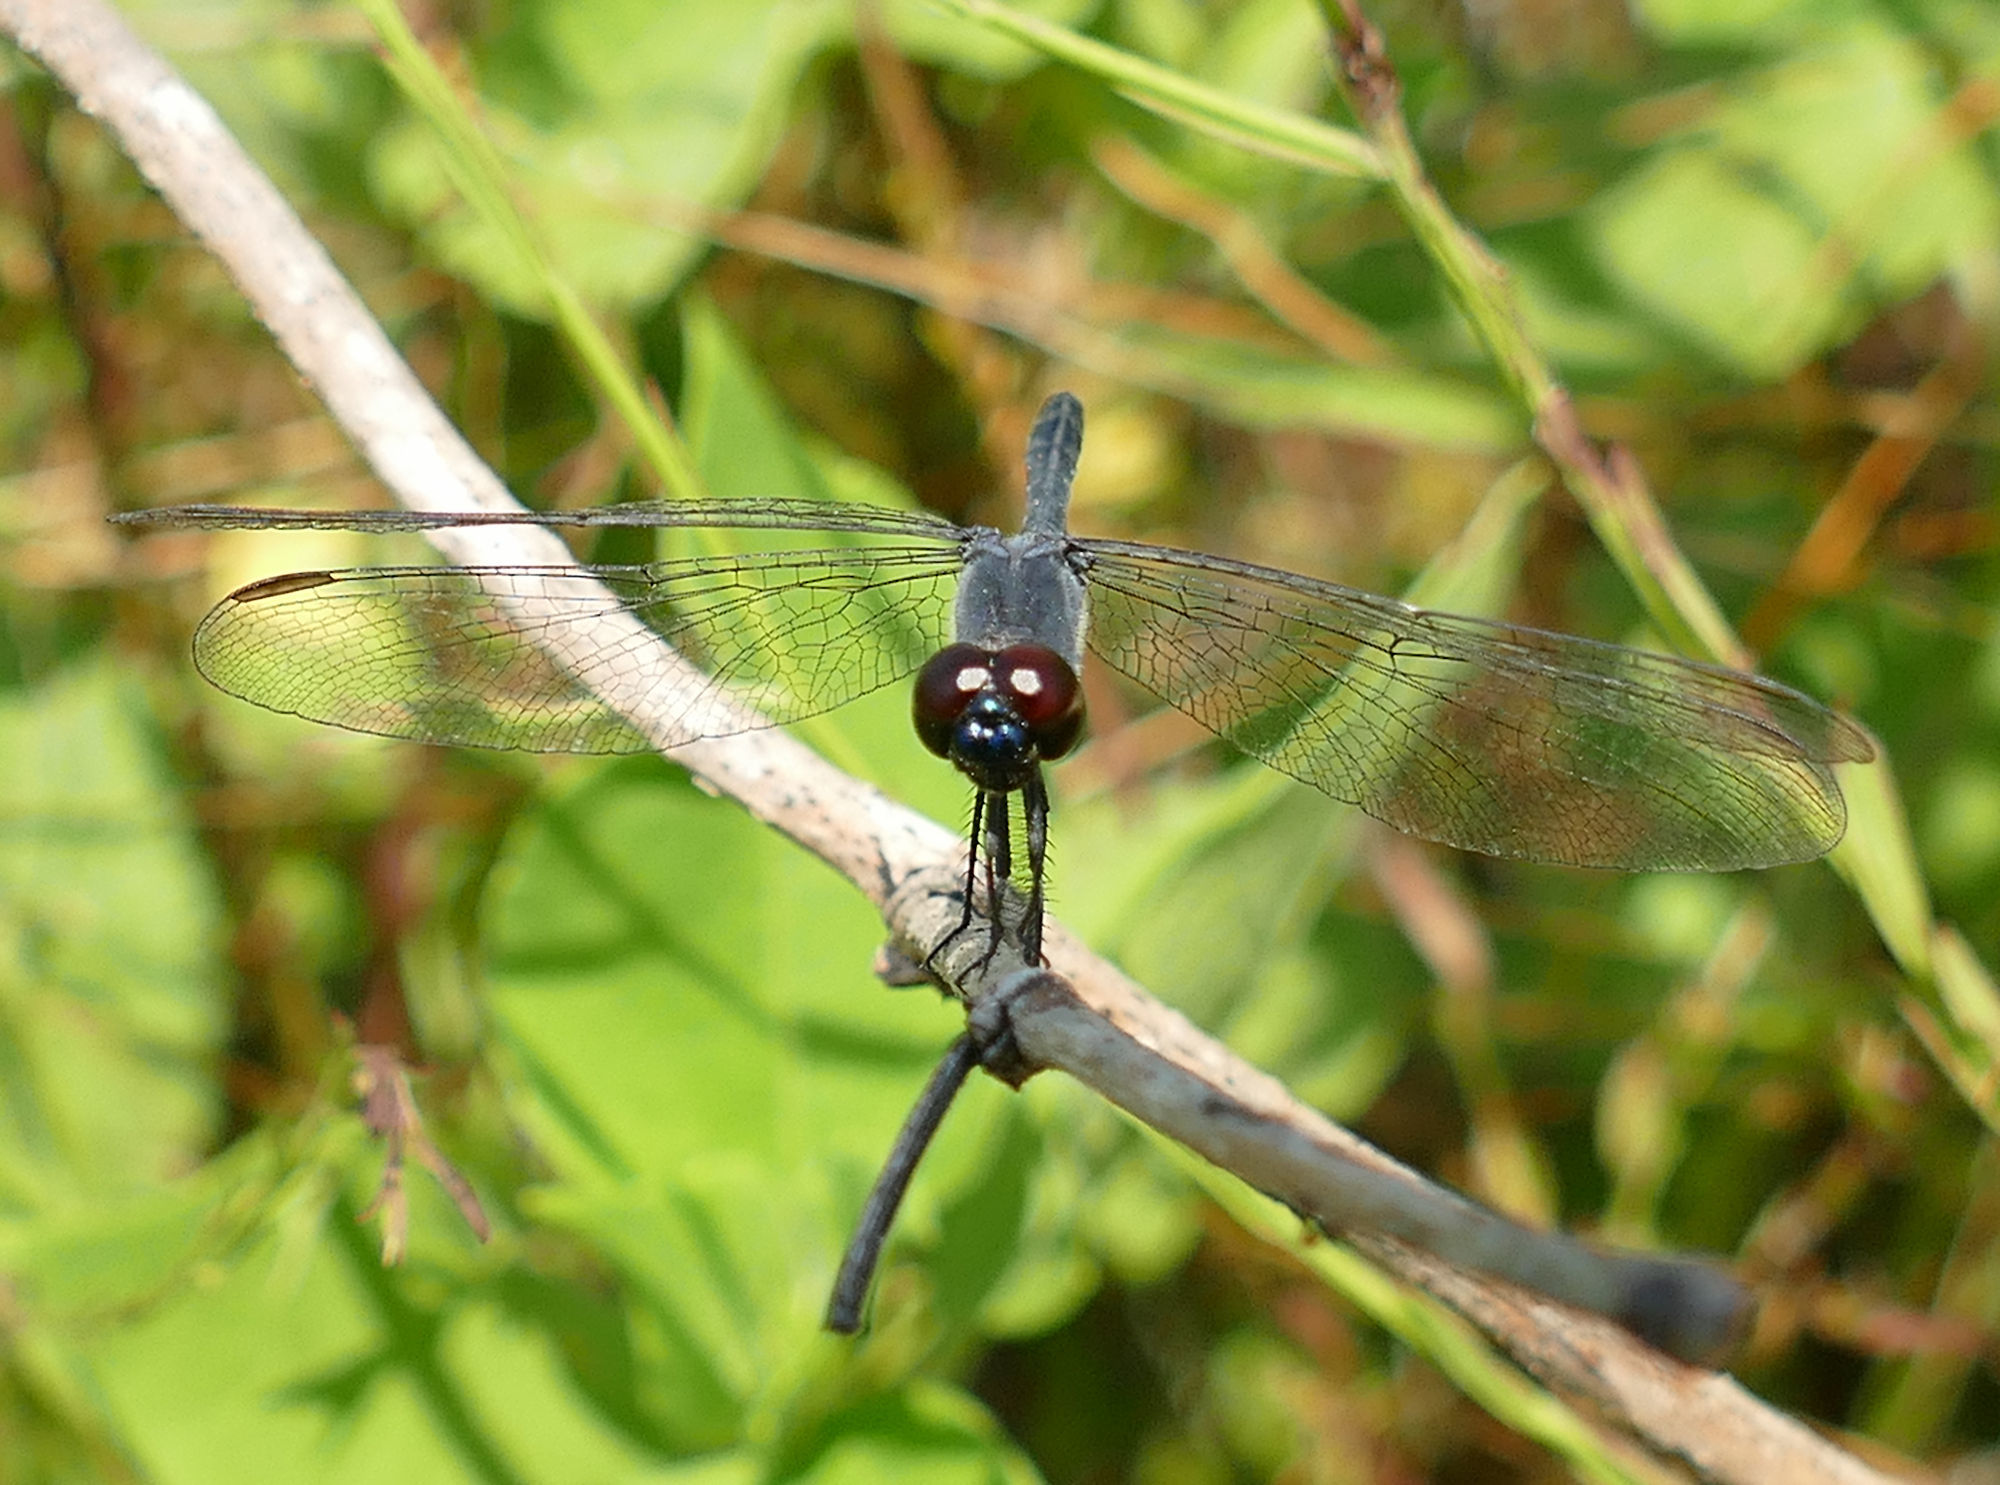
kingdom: Animalia
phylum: Arthropoda
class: Insecta
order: Odonata
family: Libellulidae
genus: Erythrodiplax
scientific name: Erythrodiplax berenice
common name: Seaside dragonlet
